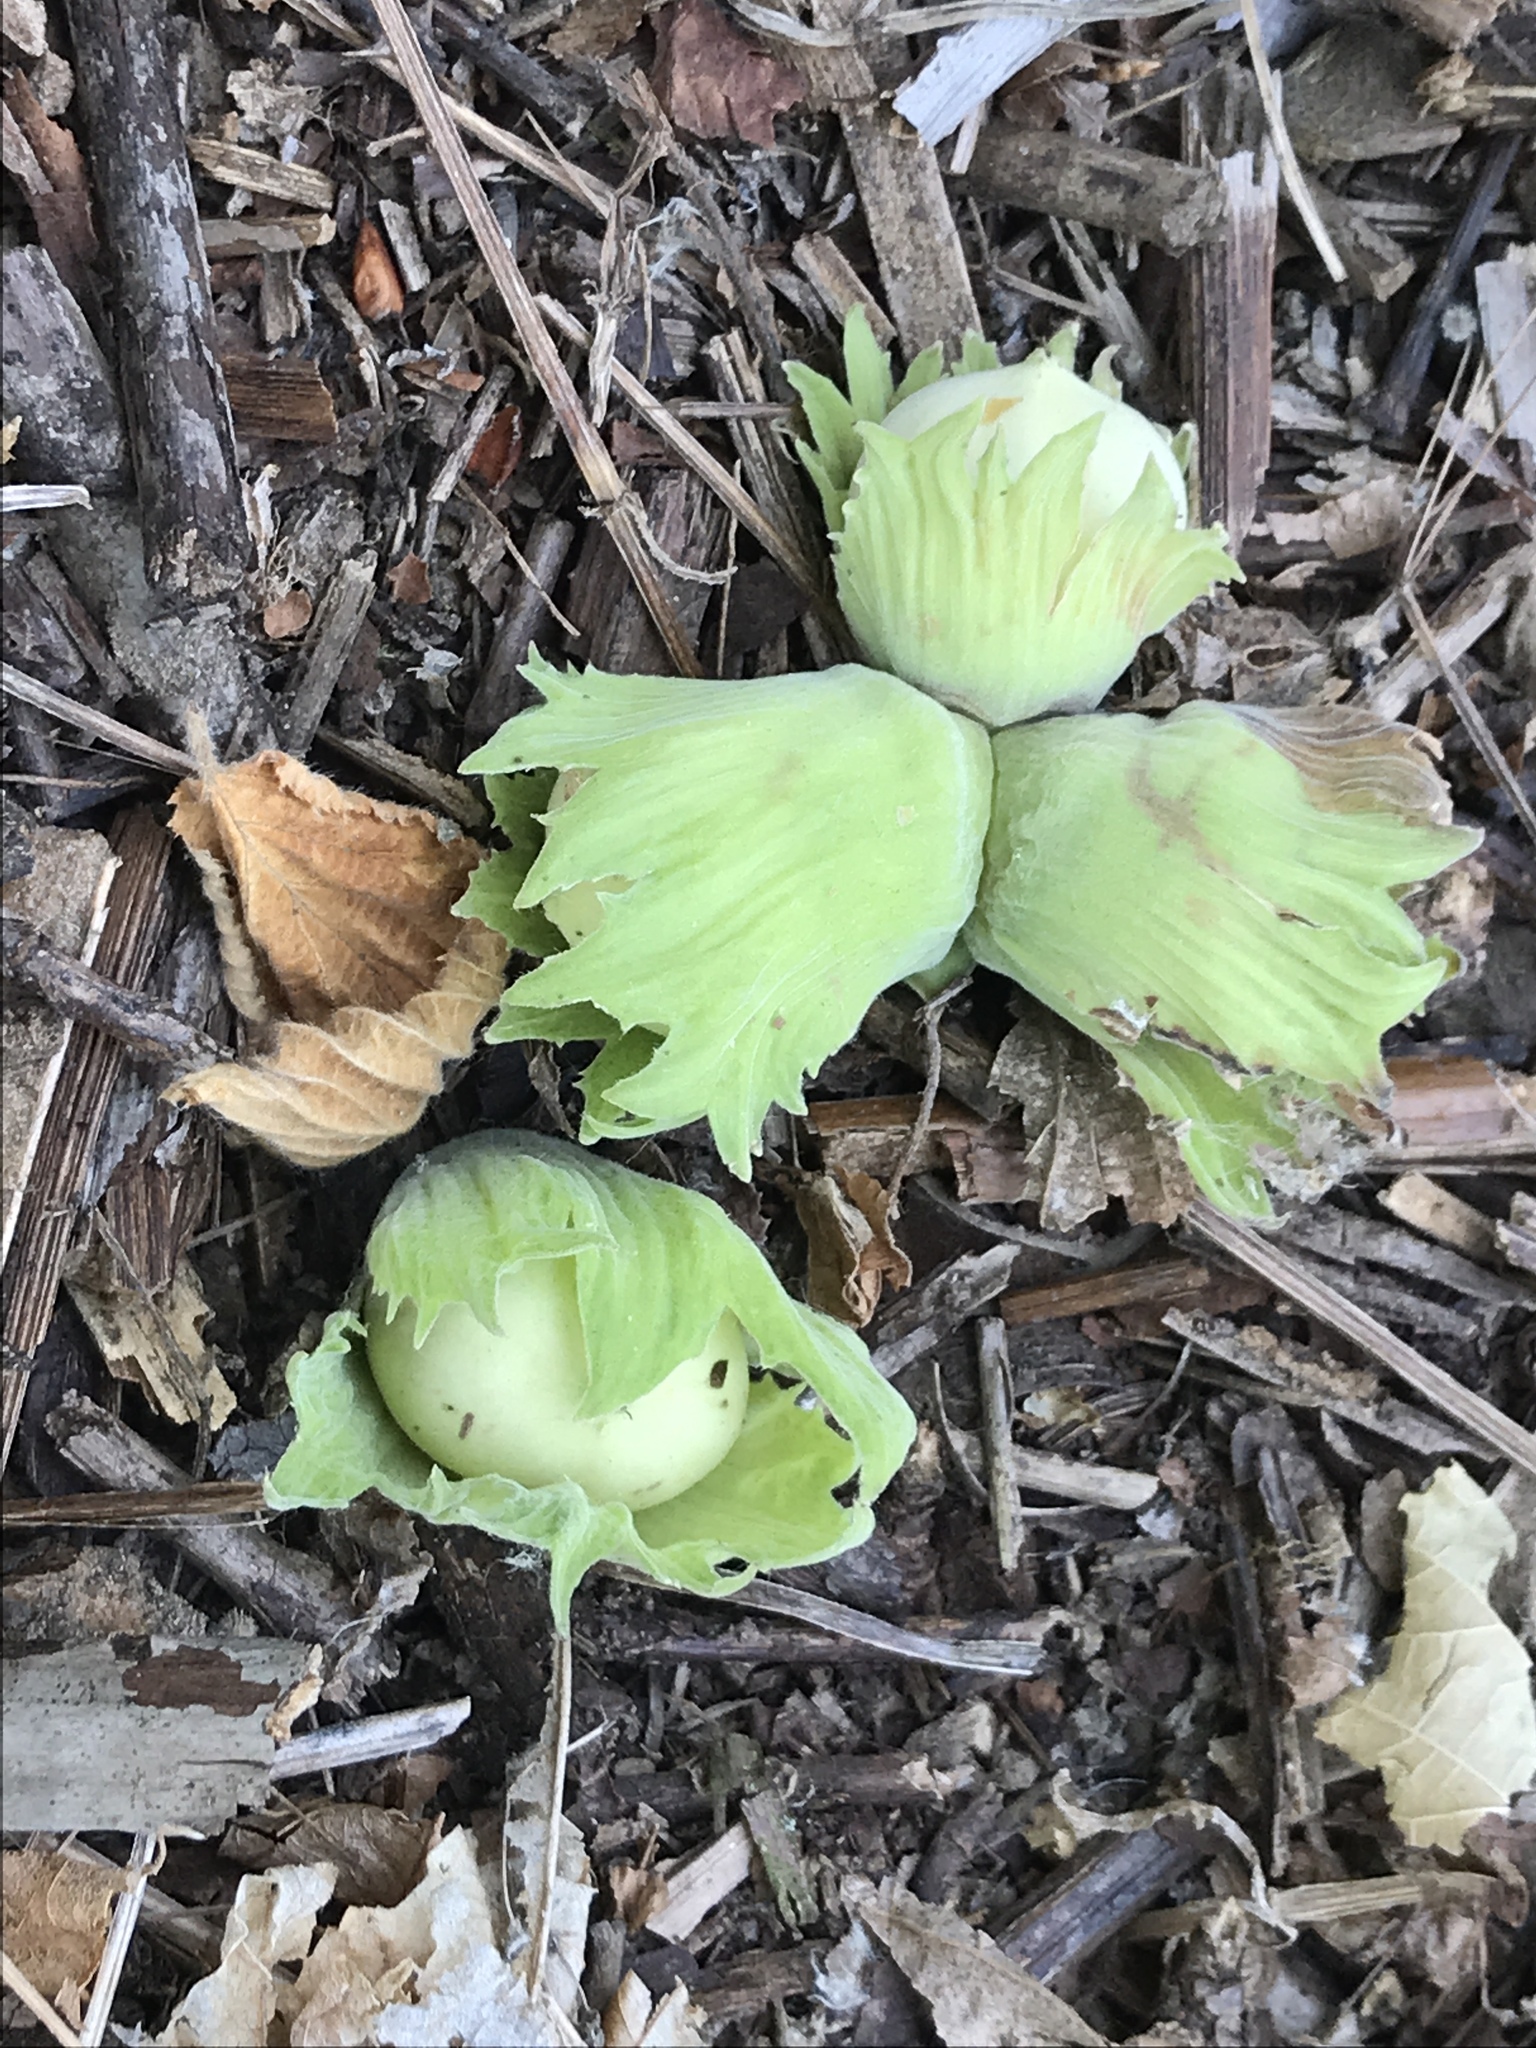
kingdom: Plantae
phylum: Tracheophyta
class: Magnoliopsida
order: Fagales
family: Betulaceae
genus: Corylus
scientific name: Corylus avellana
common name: European hazel
